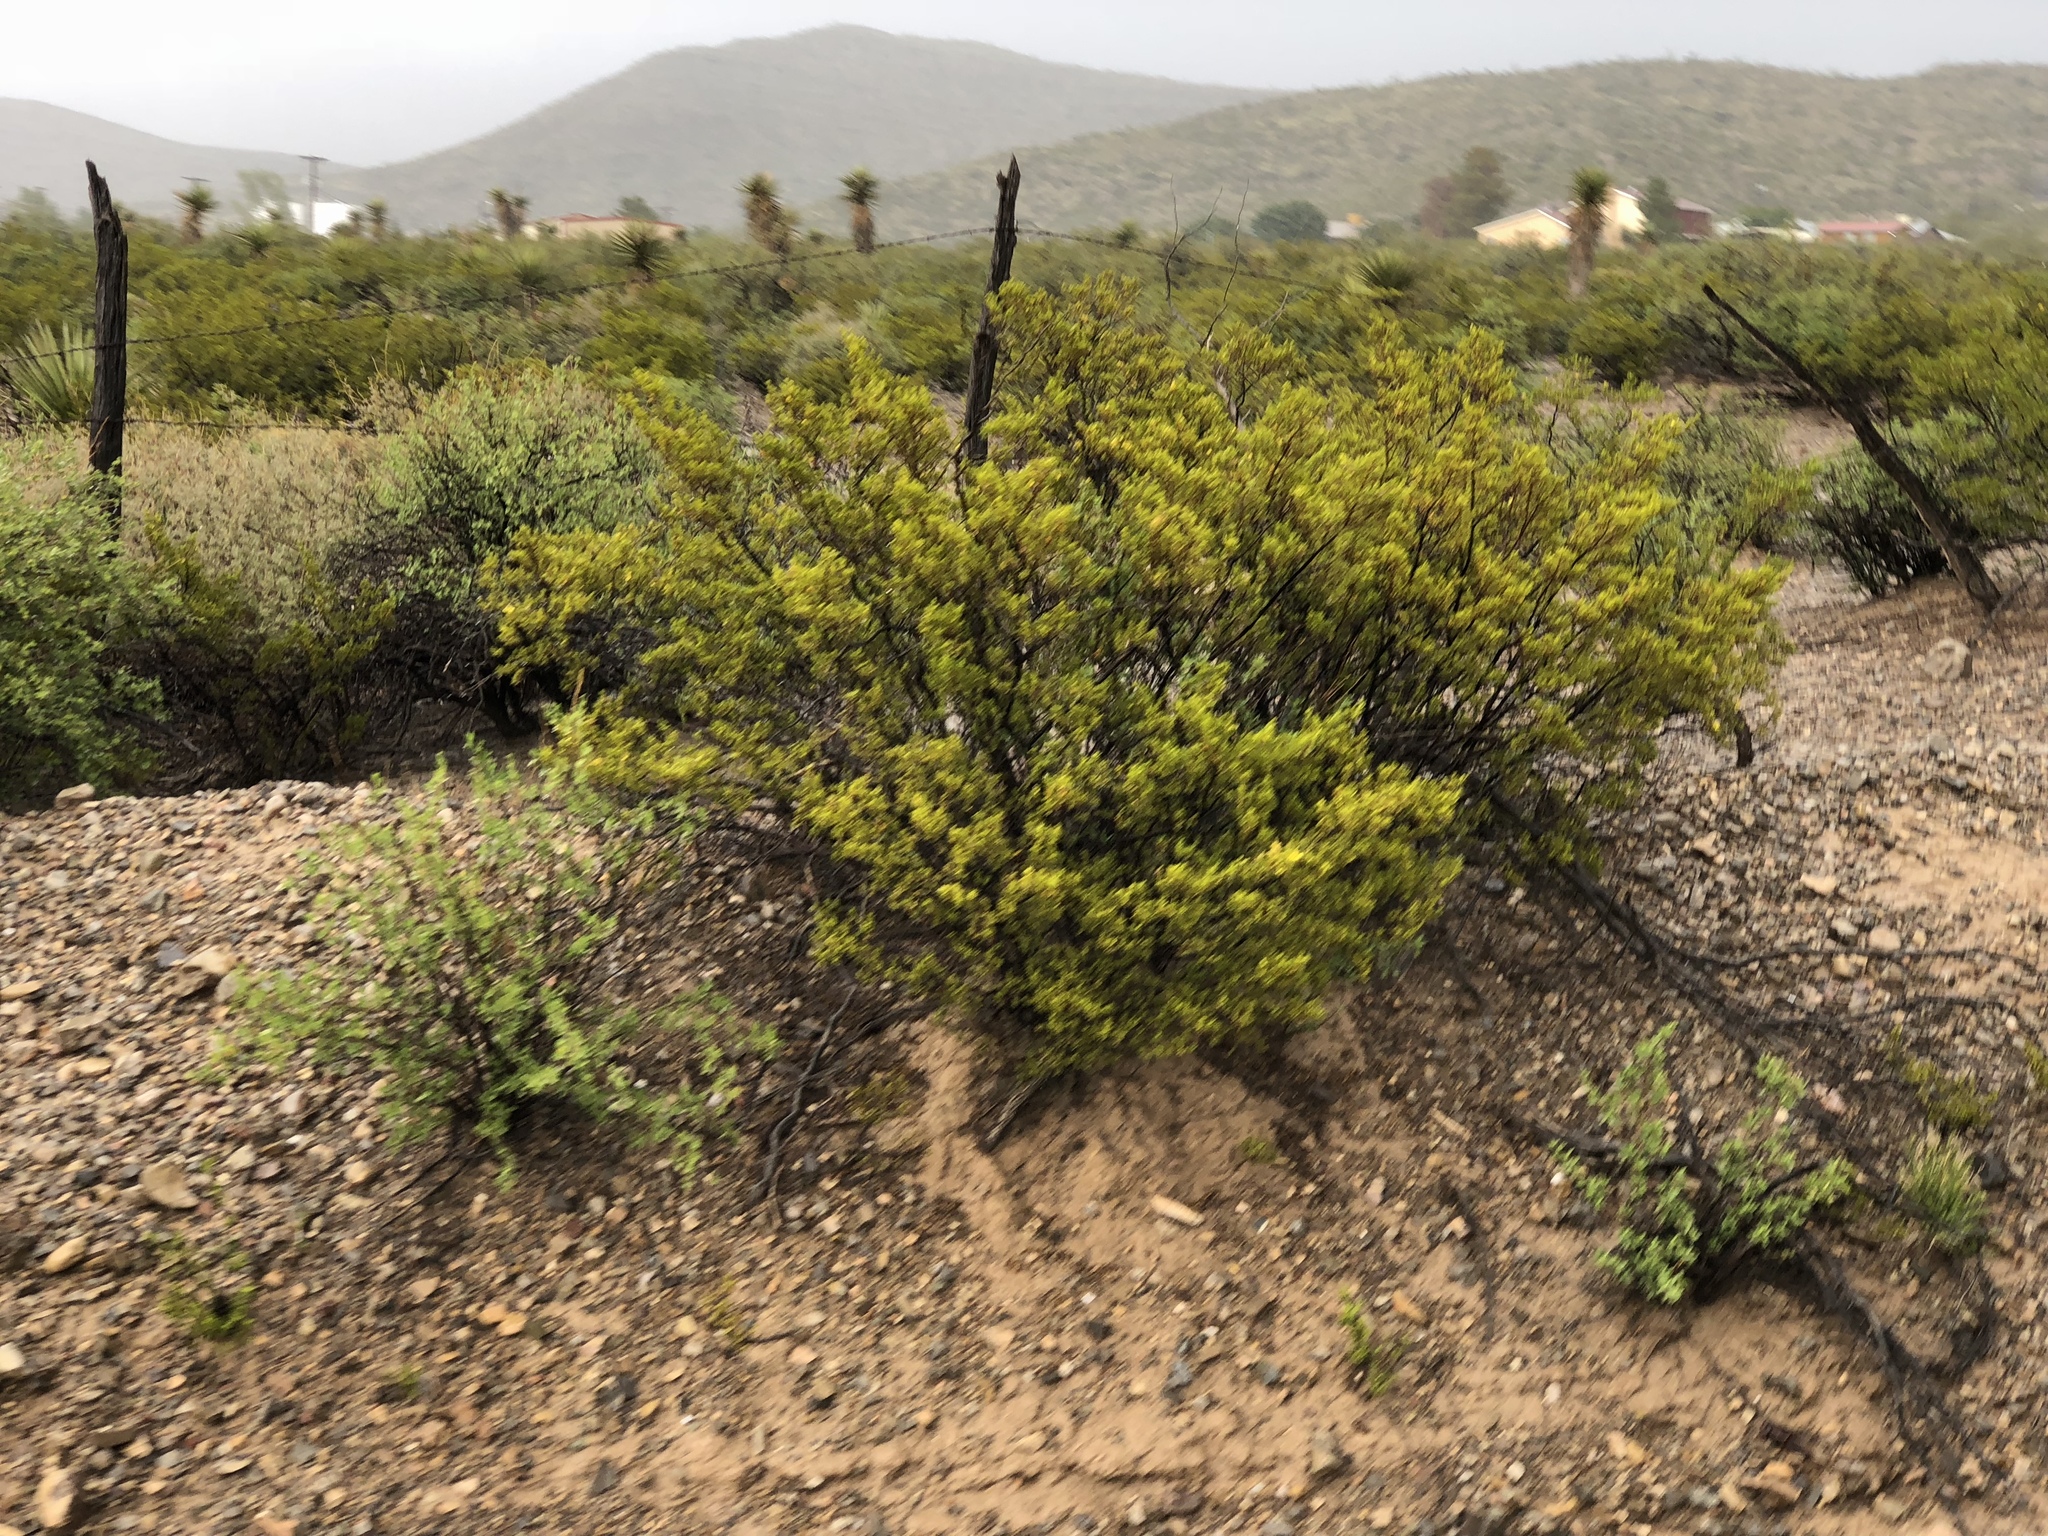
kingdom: Plantae
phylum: Tracheophyta
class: Magnoliopsida
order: Zygophyllales
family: Zygophyllaceae
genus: Larrea
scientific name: Larrea tridentata
